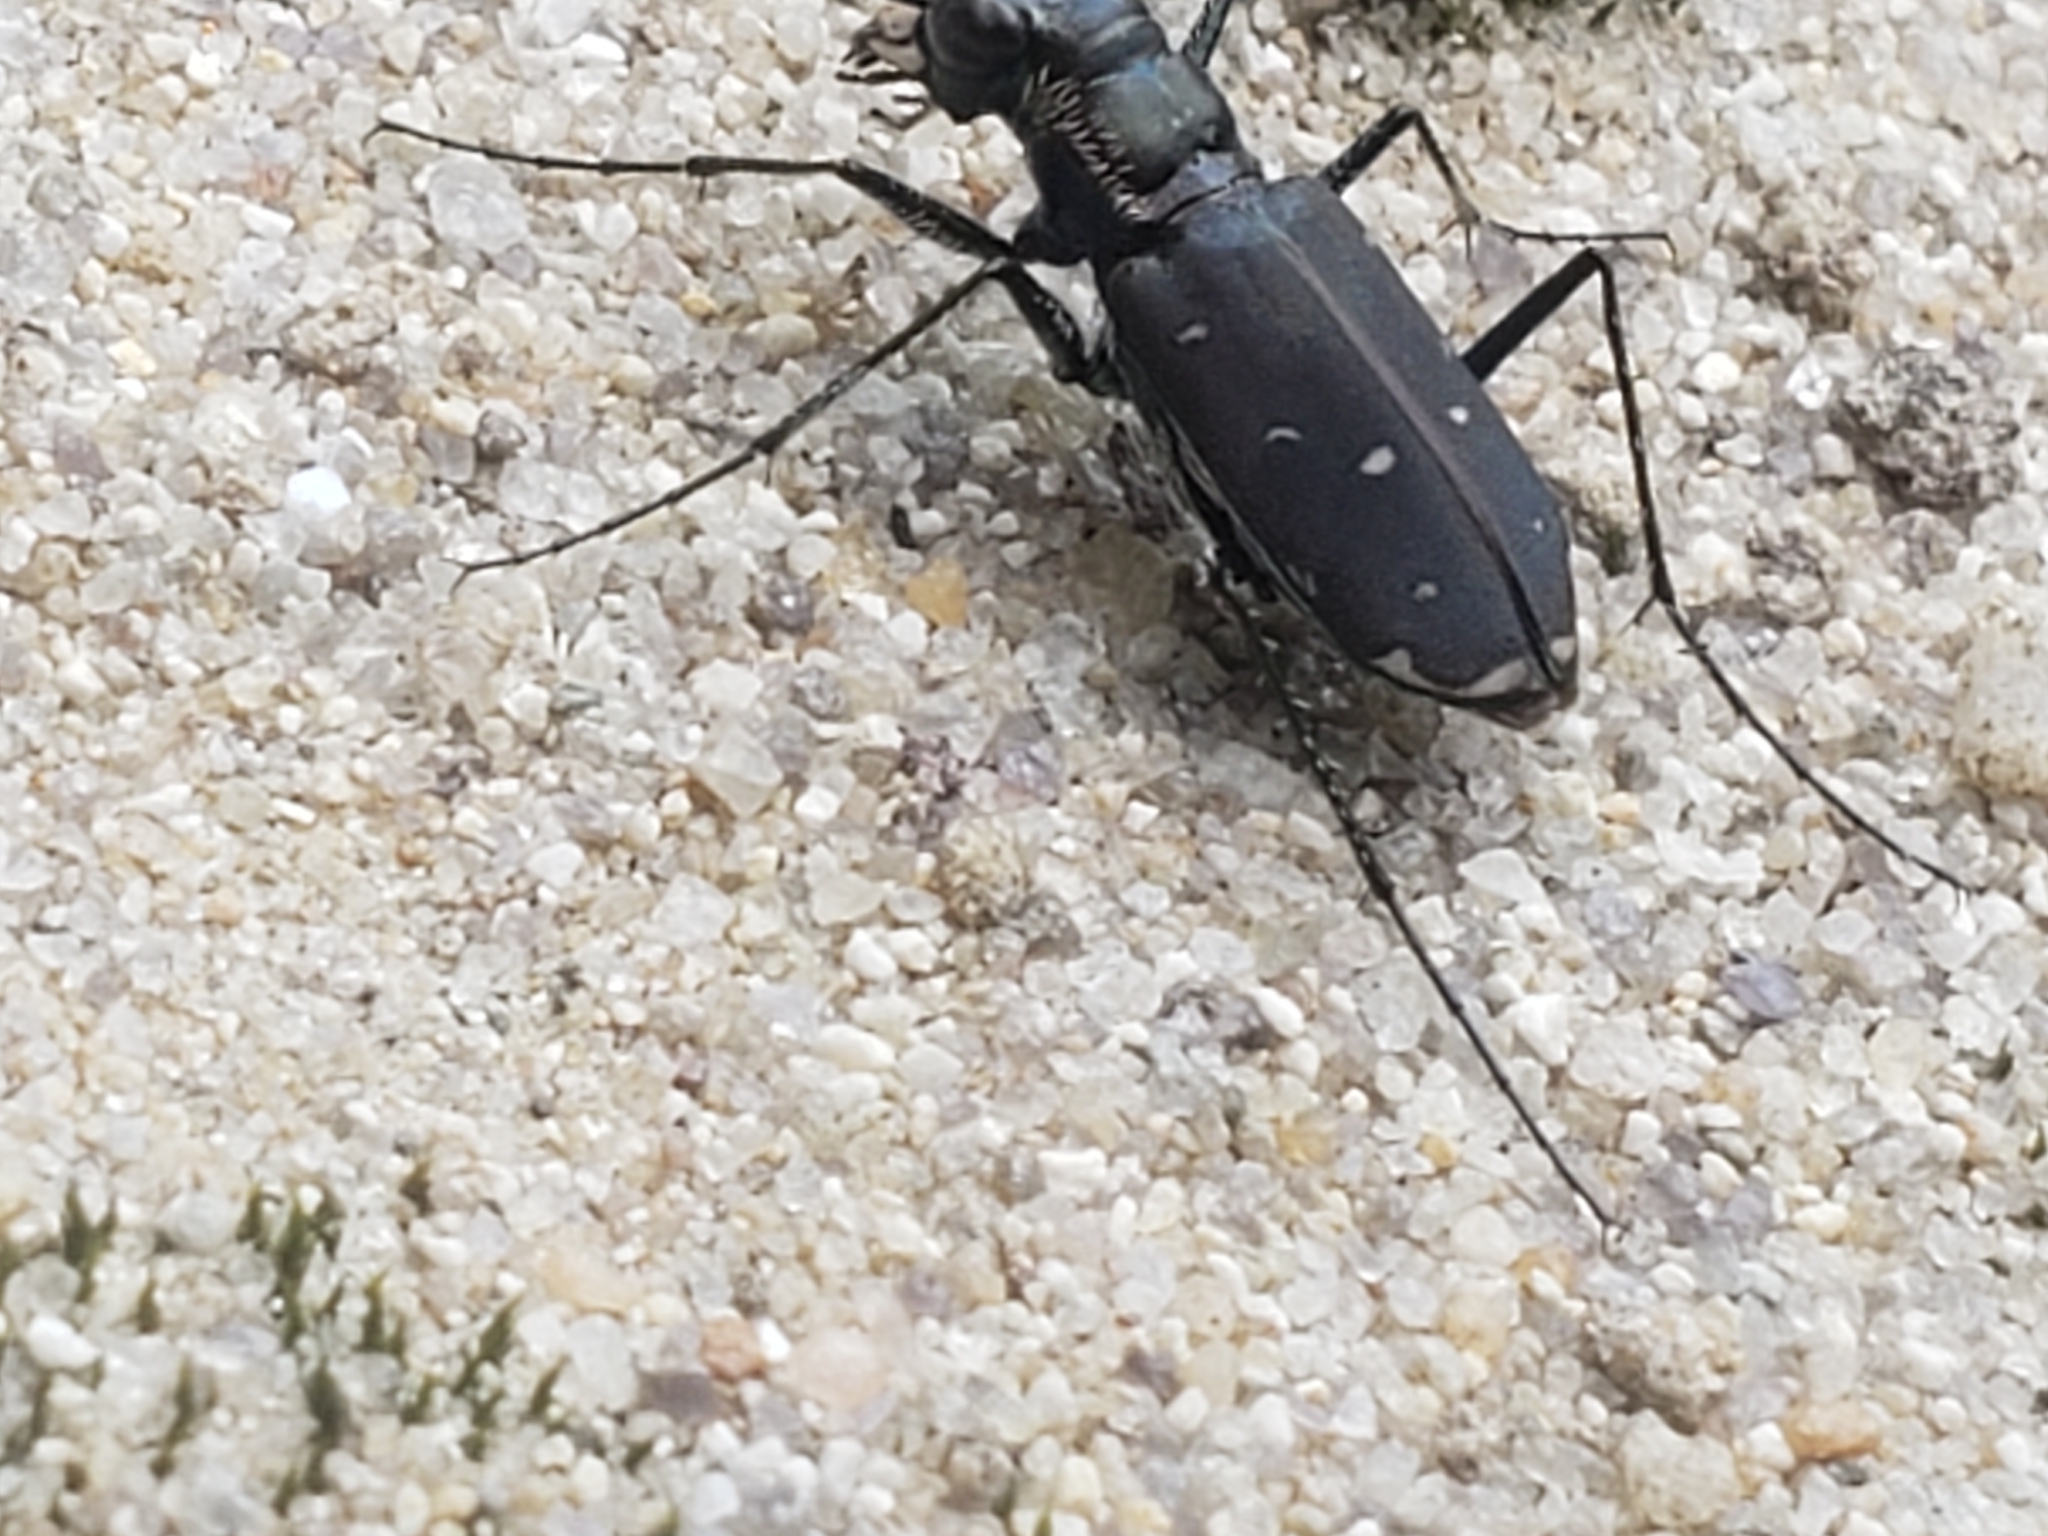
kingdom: Animalia
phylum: Arthropoda
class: Insecta
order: Coleoptera
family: Carabidae
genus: Cicindela
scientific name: Cicindela rufiventris
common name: Eastern red-bellied tiger beetle
